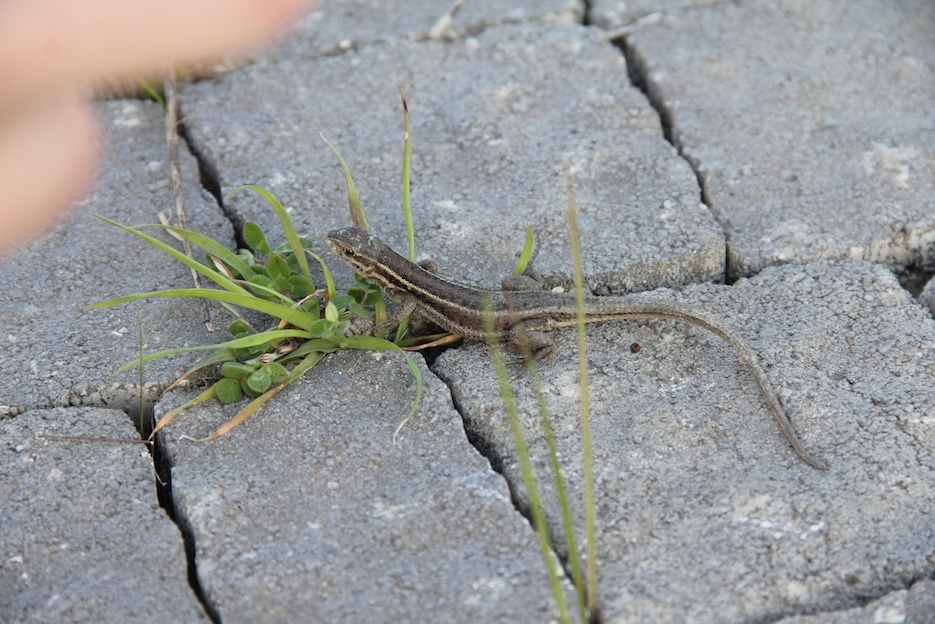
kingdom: Animalia
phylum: Chordata
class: Squamata
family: Lacertidae
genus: Ophisops
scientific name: Ophisops elegans
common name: Snake-eyed lizard
